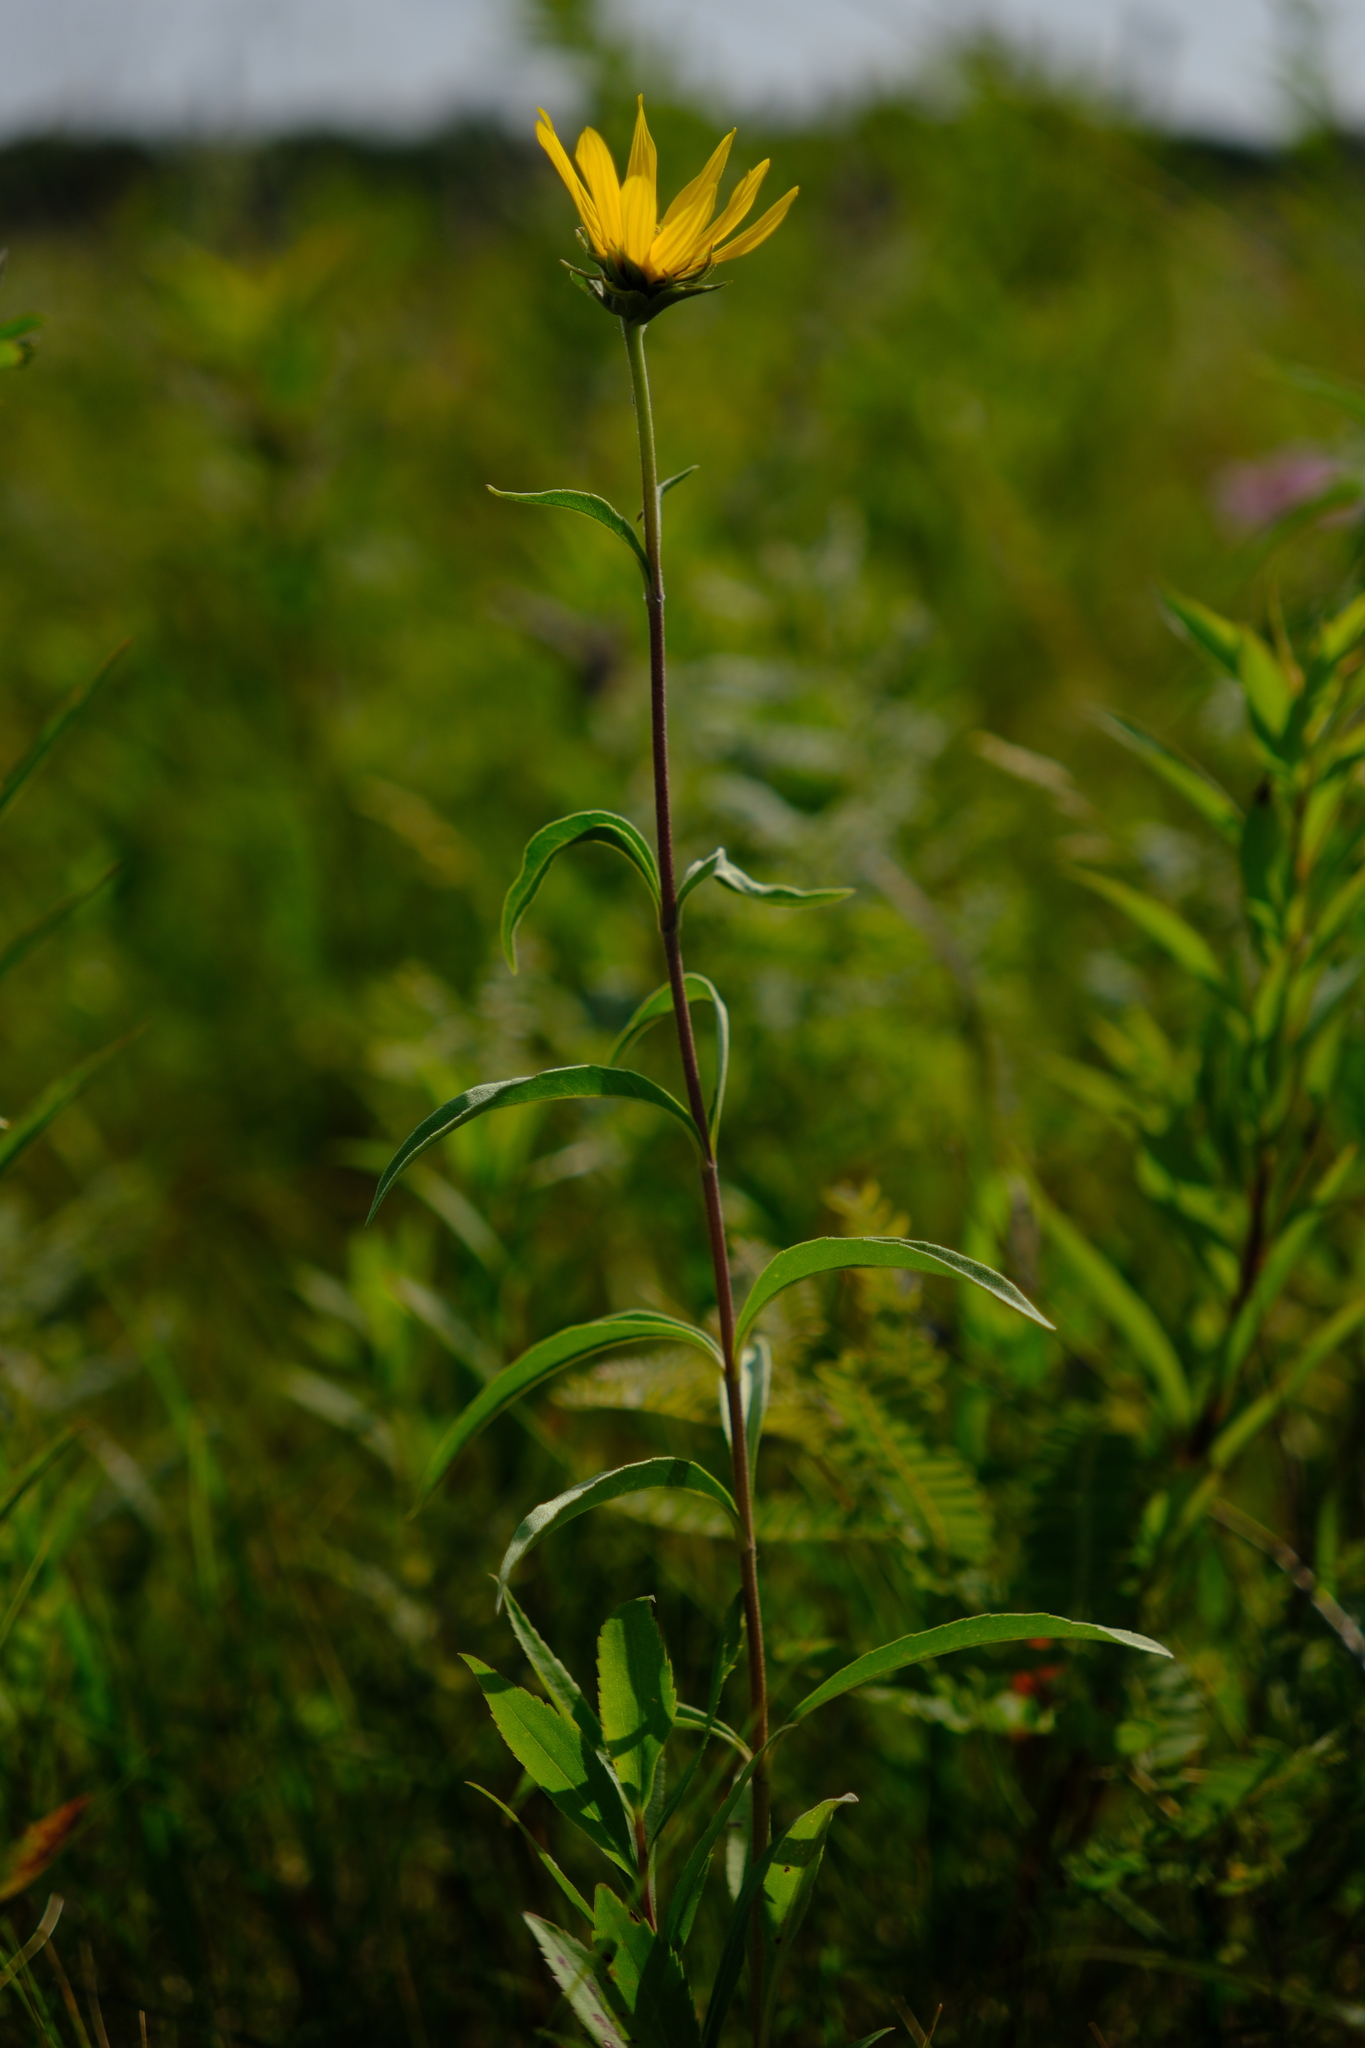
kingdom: Plantae
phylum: Tracheophyta
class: Magnoliopsida
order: Asterales
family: Asteraceae
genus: Helianthus
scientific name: Helianthus maximiliani
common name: Maximilian's sunflower
